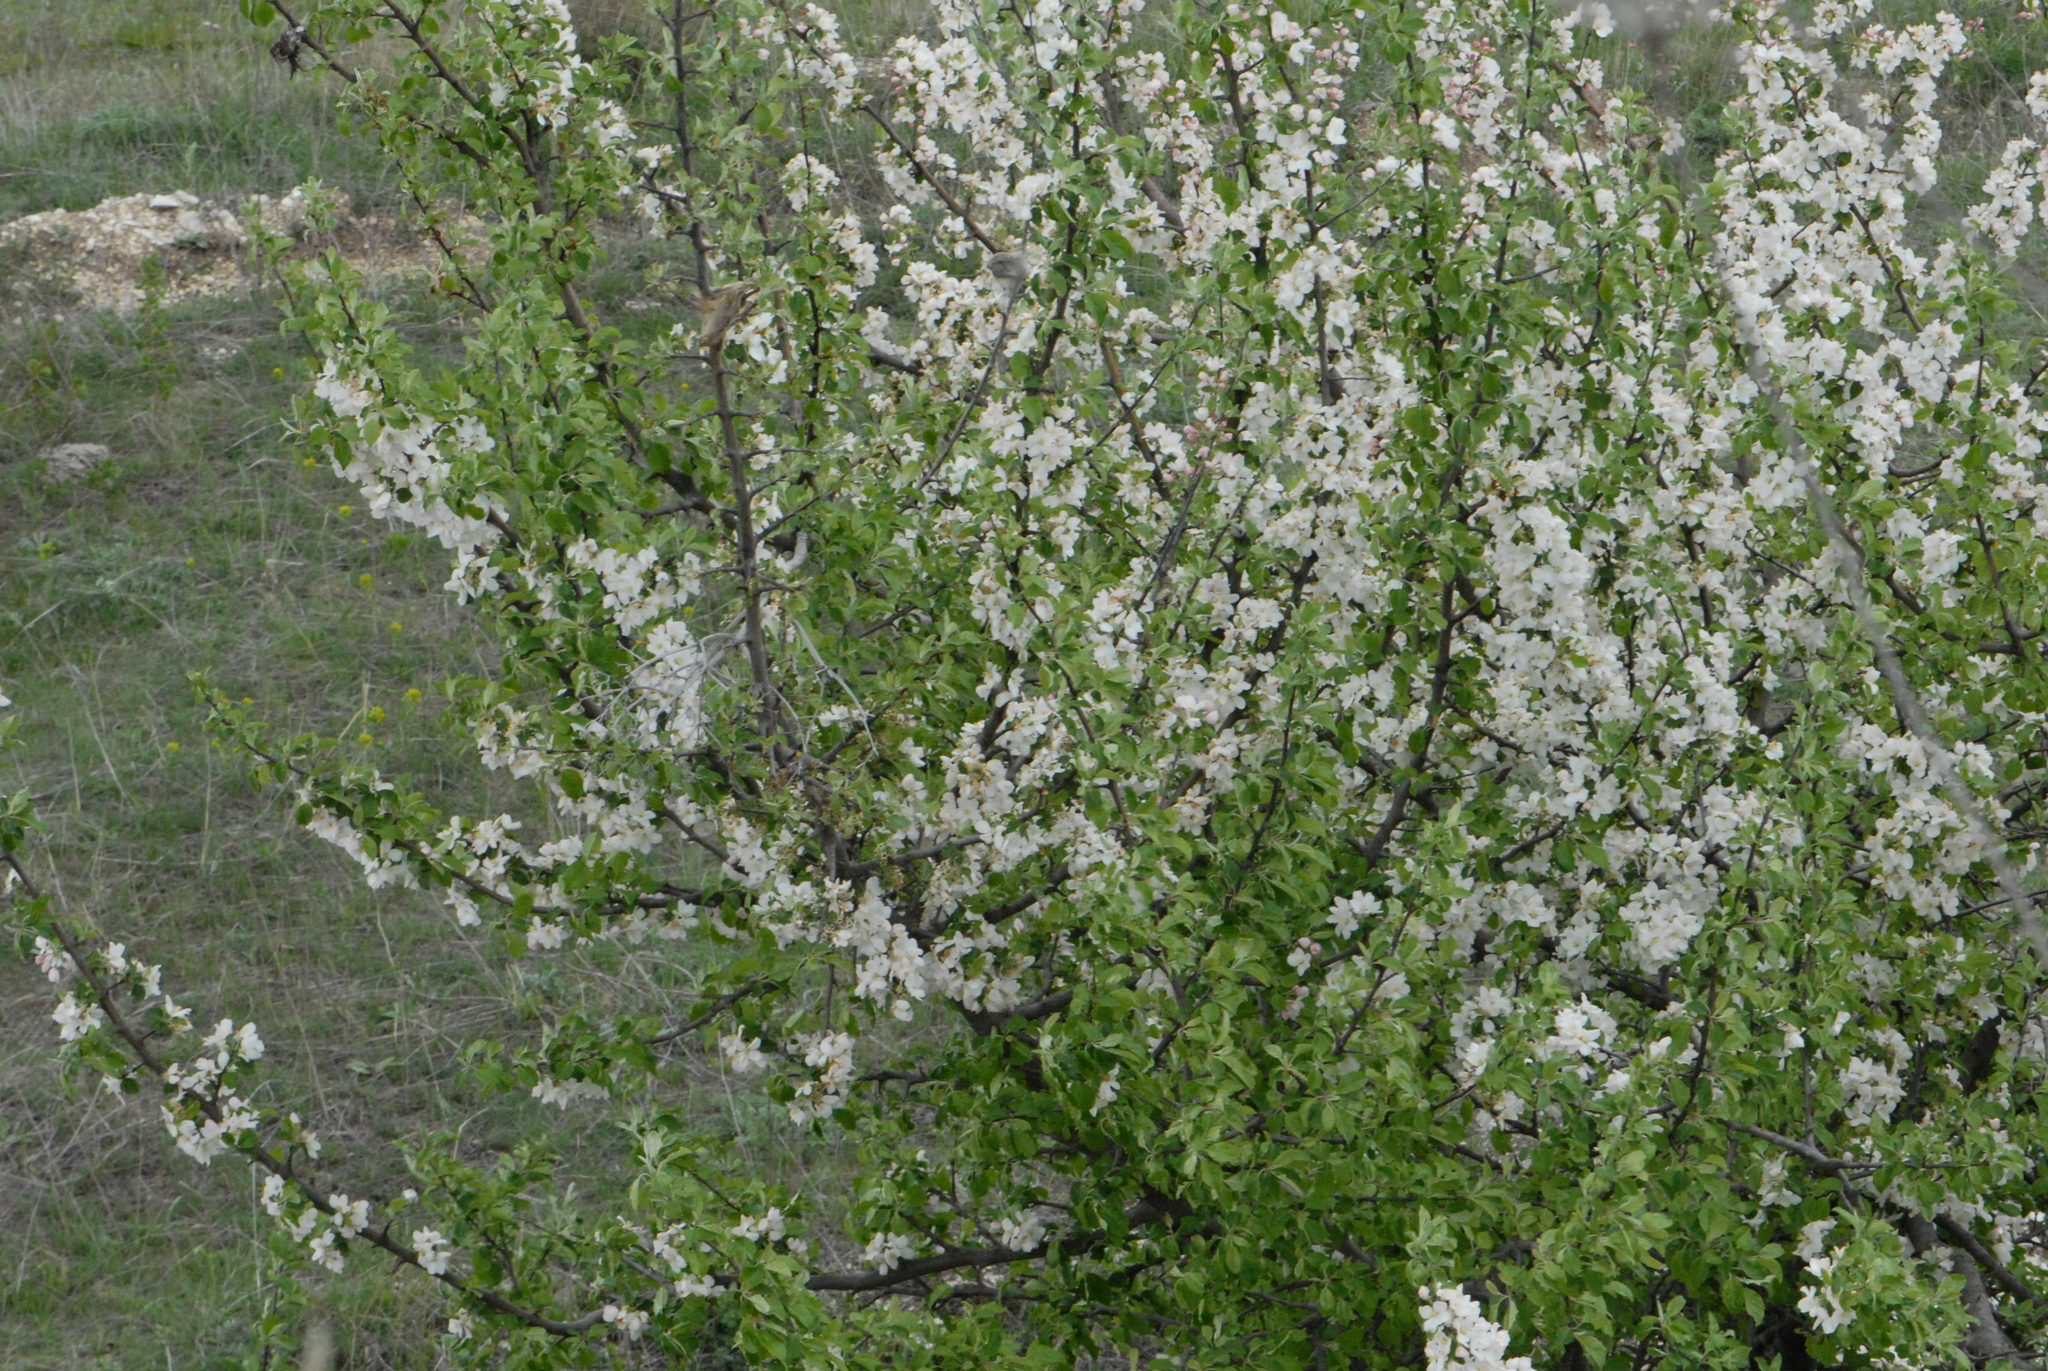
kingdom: Plantae
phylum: Tracheophyta
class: Magnoliopsida
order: Rosales
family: Rosaceae
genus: Prunus
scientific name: Prunus cerasifera
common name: Cherry plum
